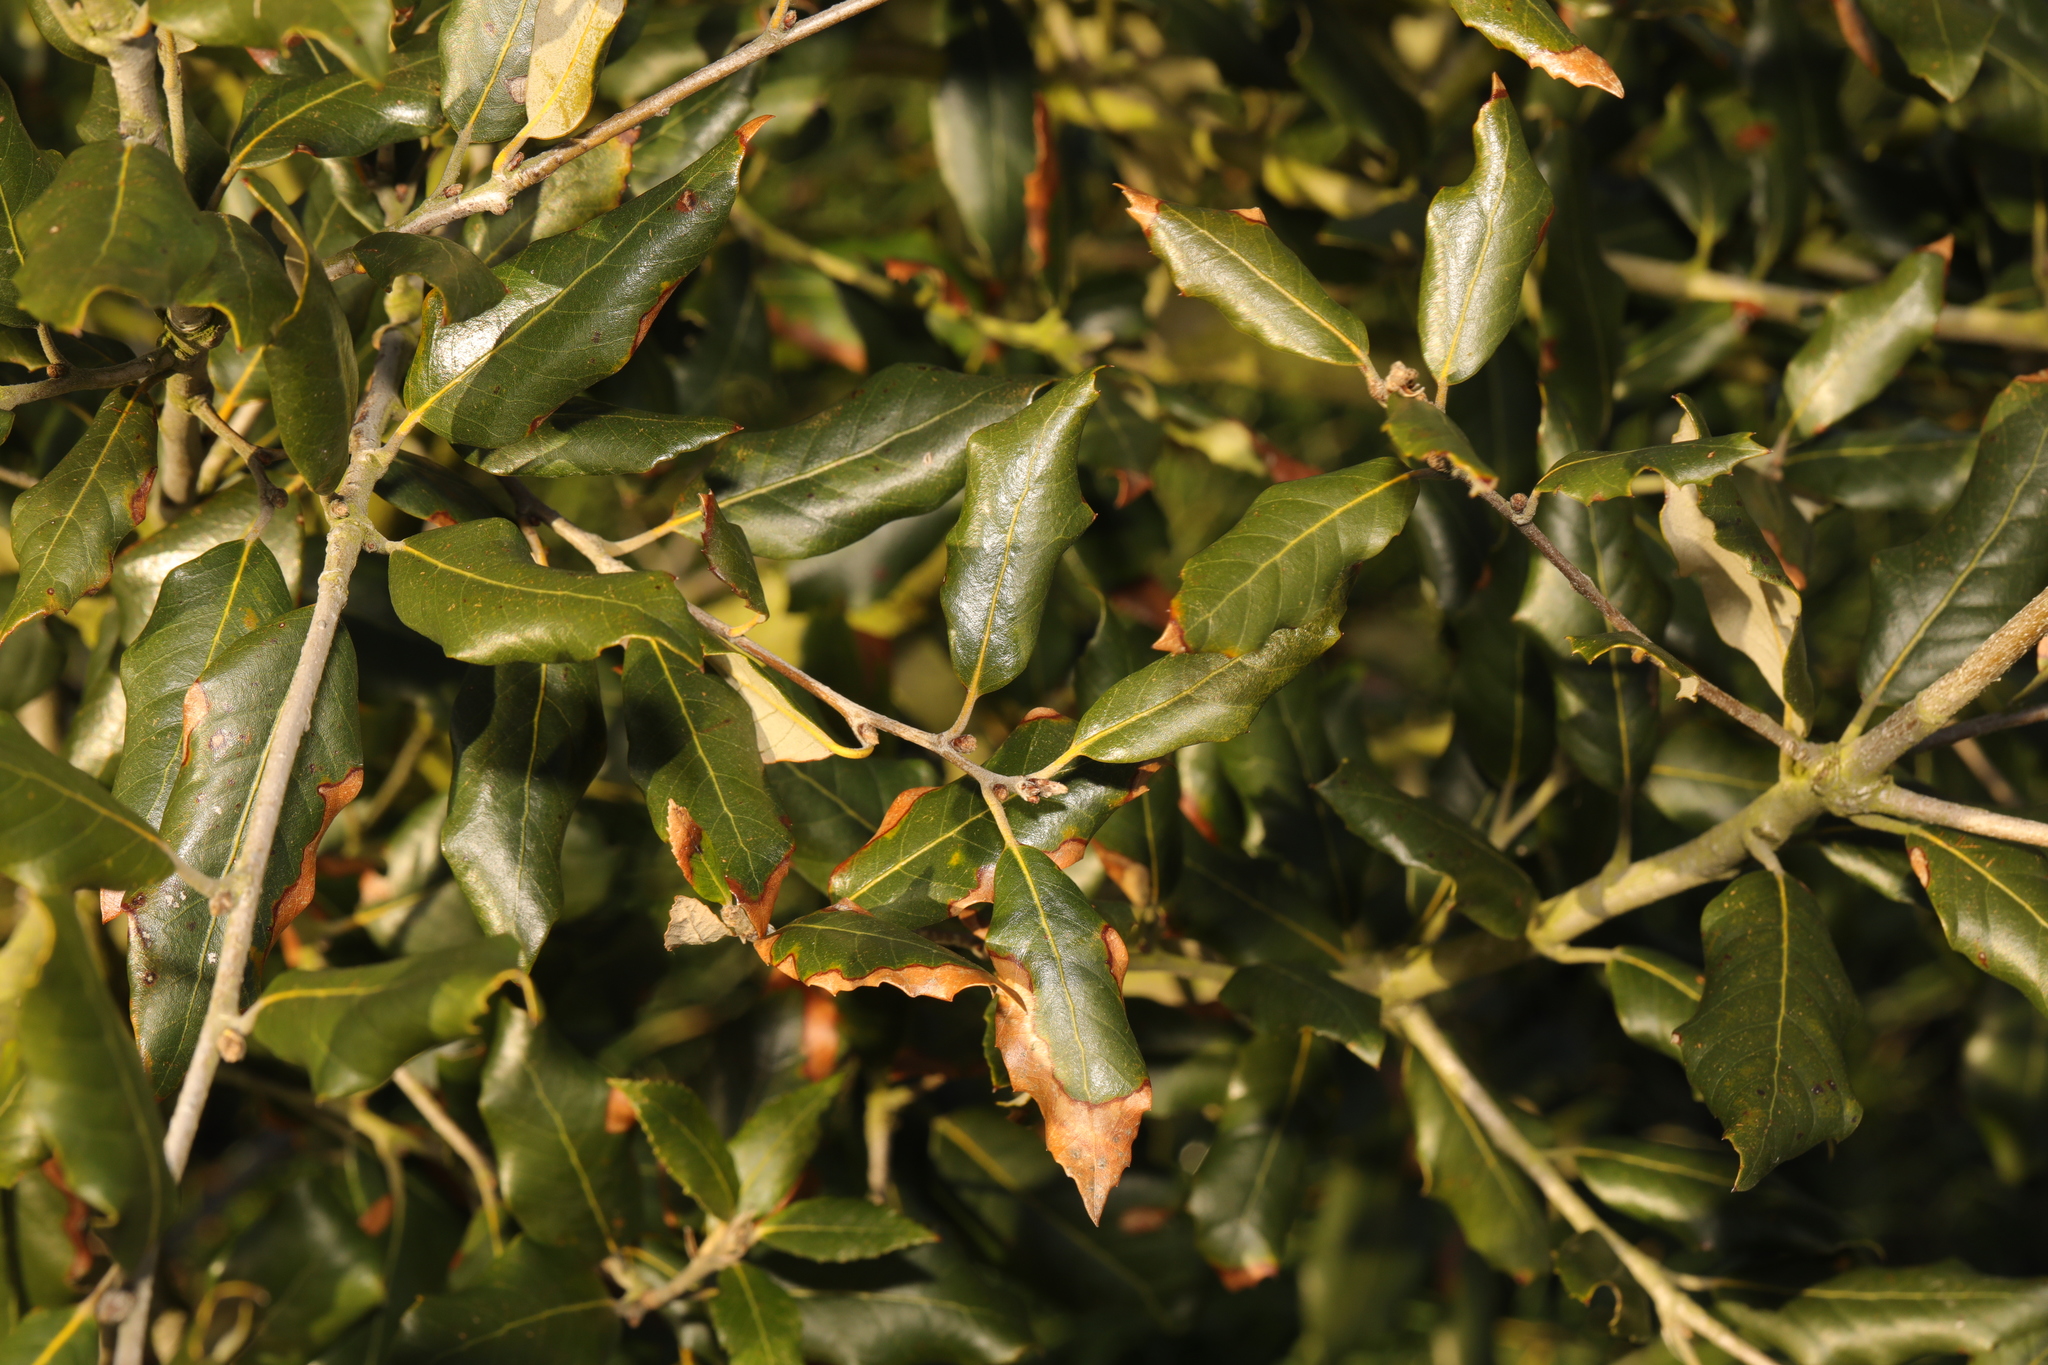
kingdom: Plantae
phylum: Tracheophyta
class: Magnoliopsida
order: Fagales
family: Fagaceae
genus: Quercus
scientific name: Quercus ilex
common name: Evergreen oak
